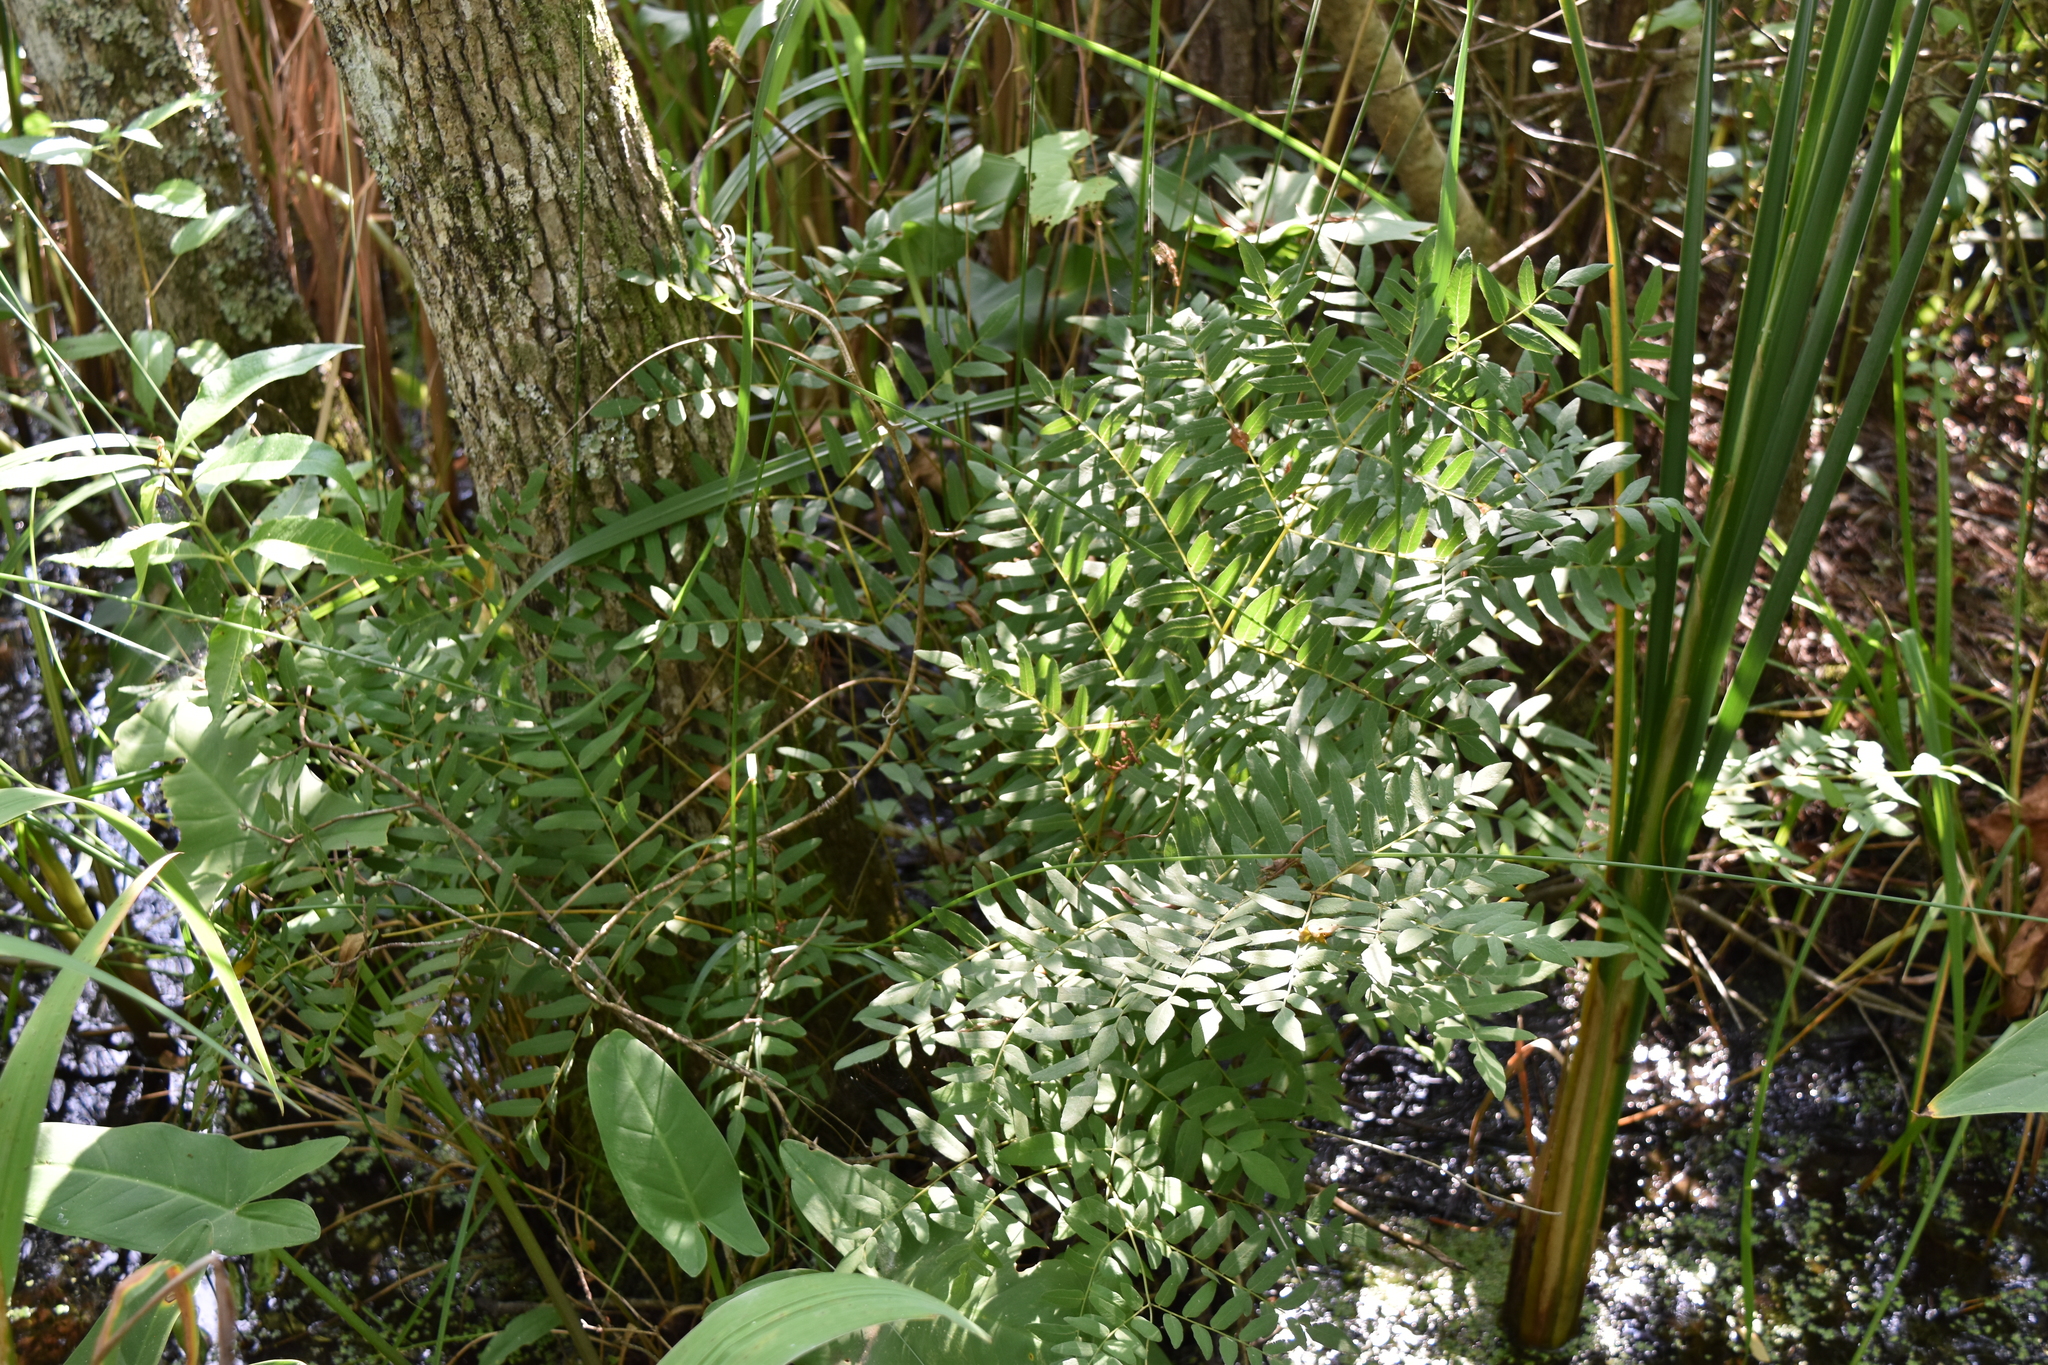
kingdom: Plantae
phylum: Tracheophyta
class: Polypodiopsida
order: Osmundales
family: Osmundaceae
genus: Osmunda
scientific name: Osmunda spectabilis
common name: American royal fern
